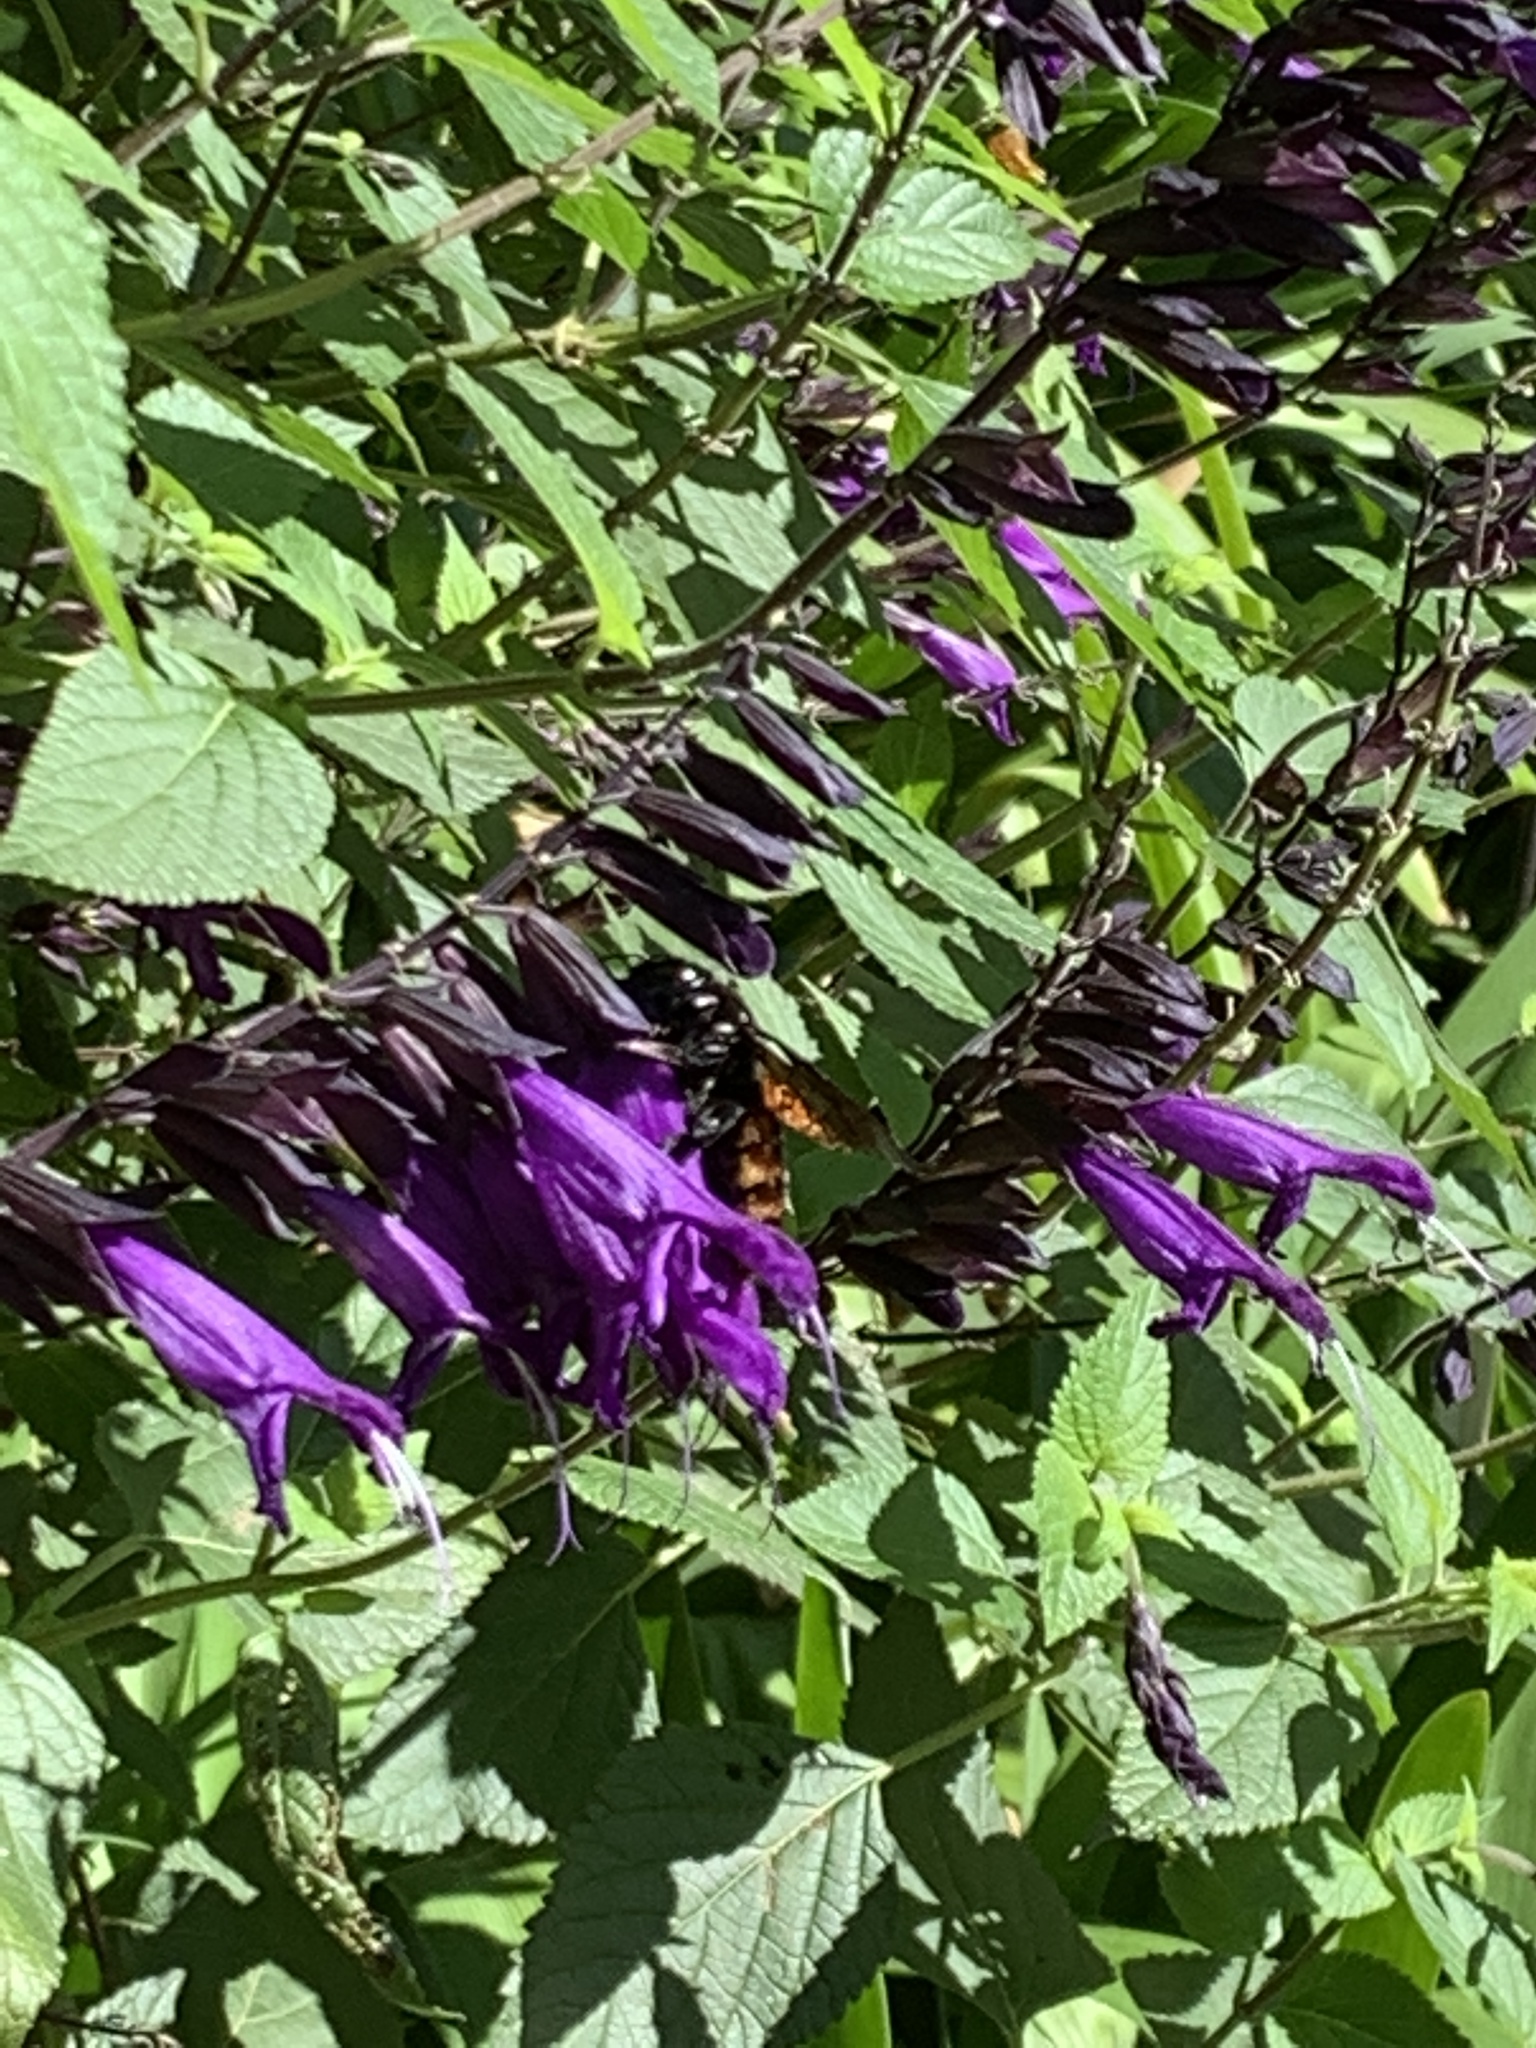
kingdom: Animalia
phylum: Arthropoda
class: Insecta
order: Hymenoptera
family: Apidae
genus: Xylocopa
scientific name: Xylocopa augusti
